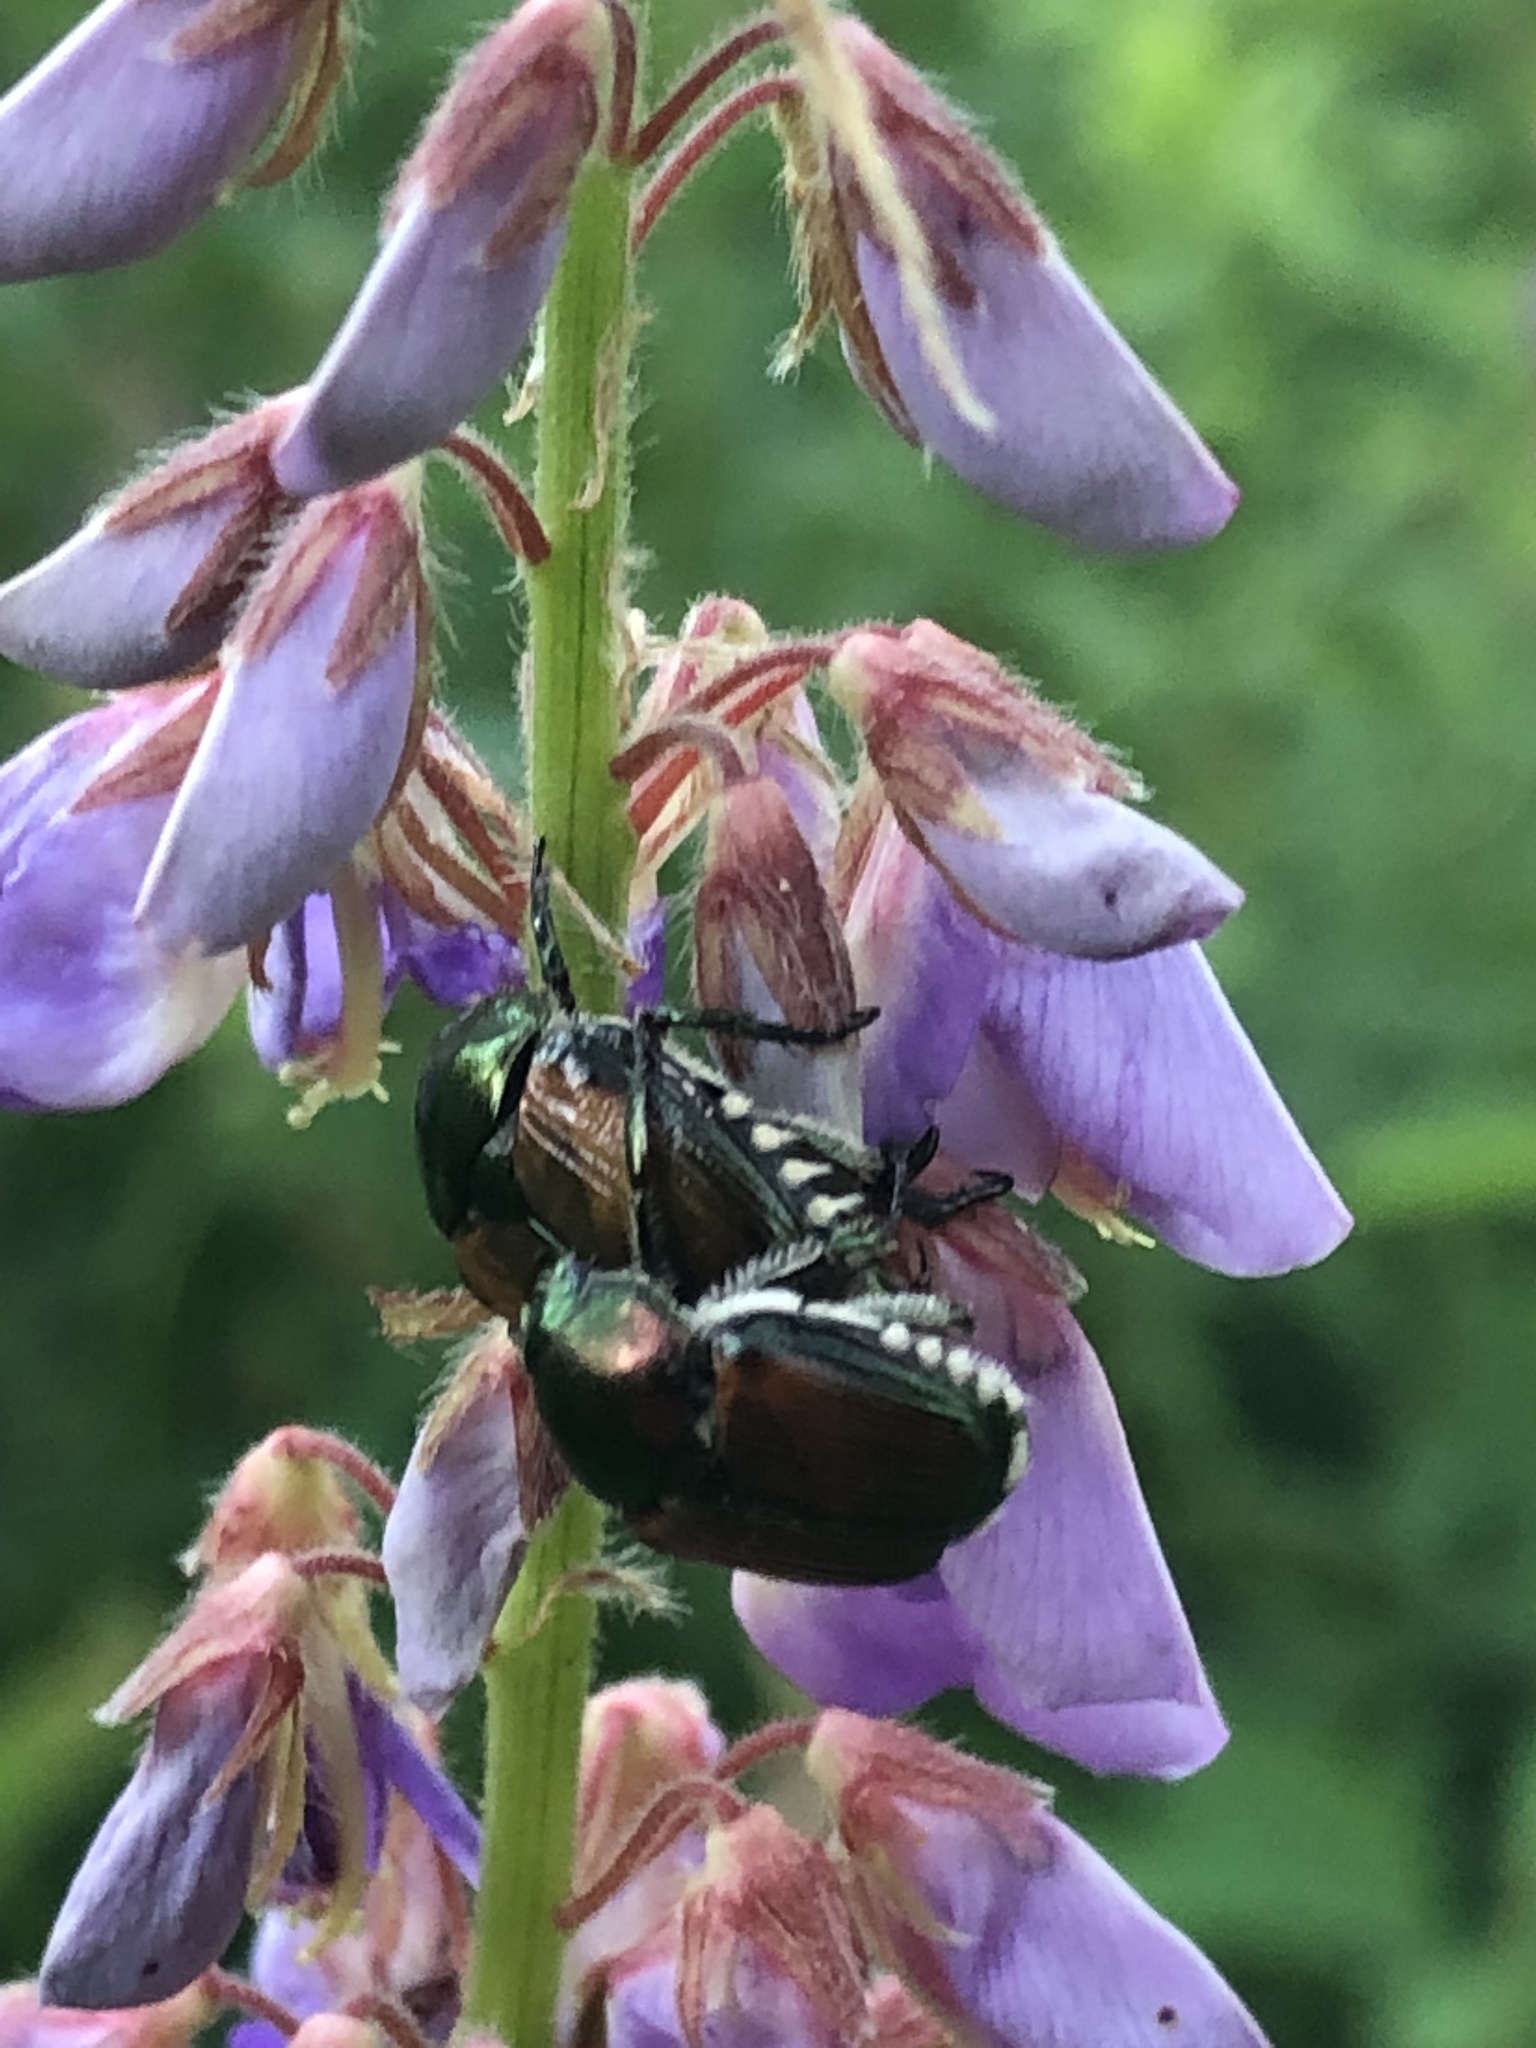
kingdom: Animalia
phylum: Arthropoda
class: Insecta
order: Coleoptera
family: Scarabaeidae
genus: Popillia
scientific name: Popillia japonica
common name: Japanese beetle
